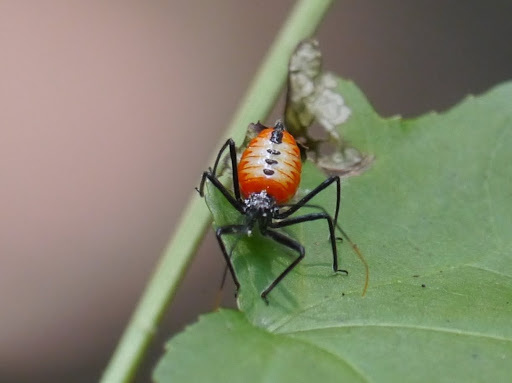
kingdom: Animalia
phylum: Arthropoda
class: Insecta
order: Hemiptera
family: Reduviidae
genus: Arilus
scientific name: Arilus cristatus
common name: North american wheel bug
